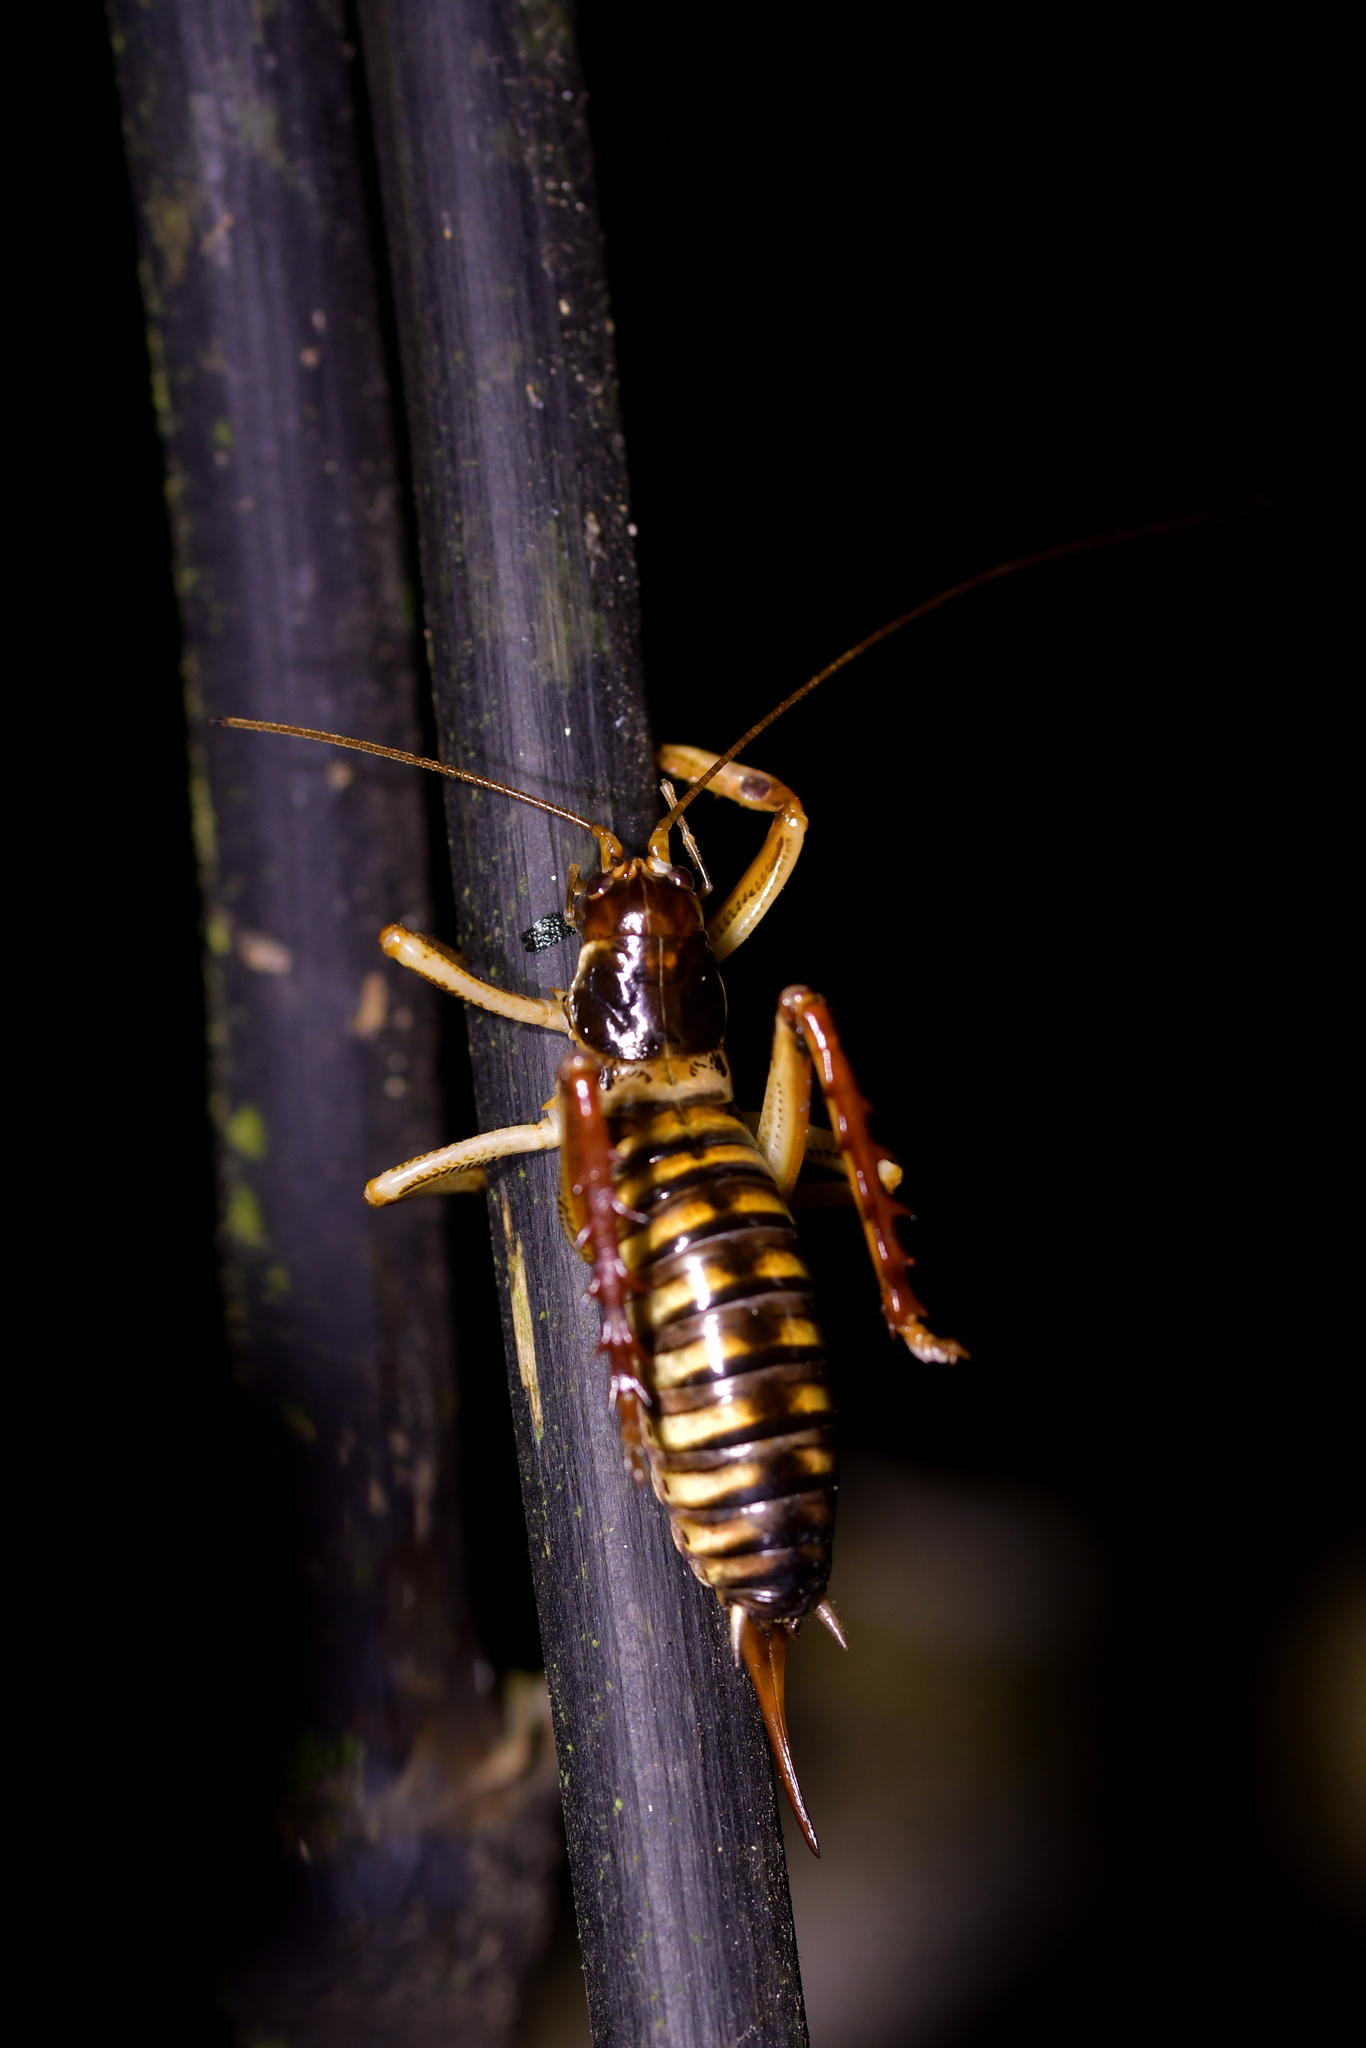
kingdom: Animalia
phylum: Arthropoda
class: Insecta
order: Orthoptera
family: Anostostomatidae
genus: Hemideina
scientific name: Hemideina crassidens
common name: Wellington tree weta
